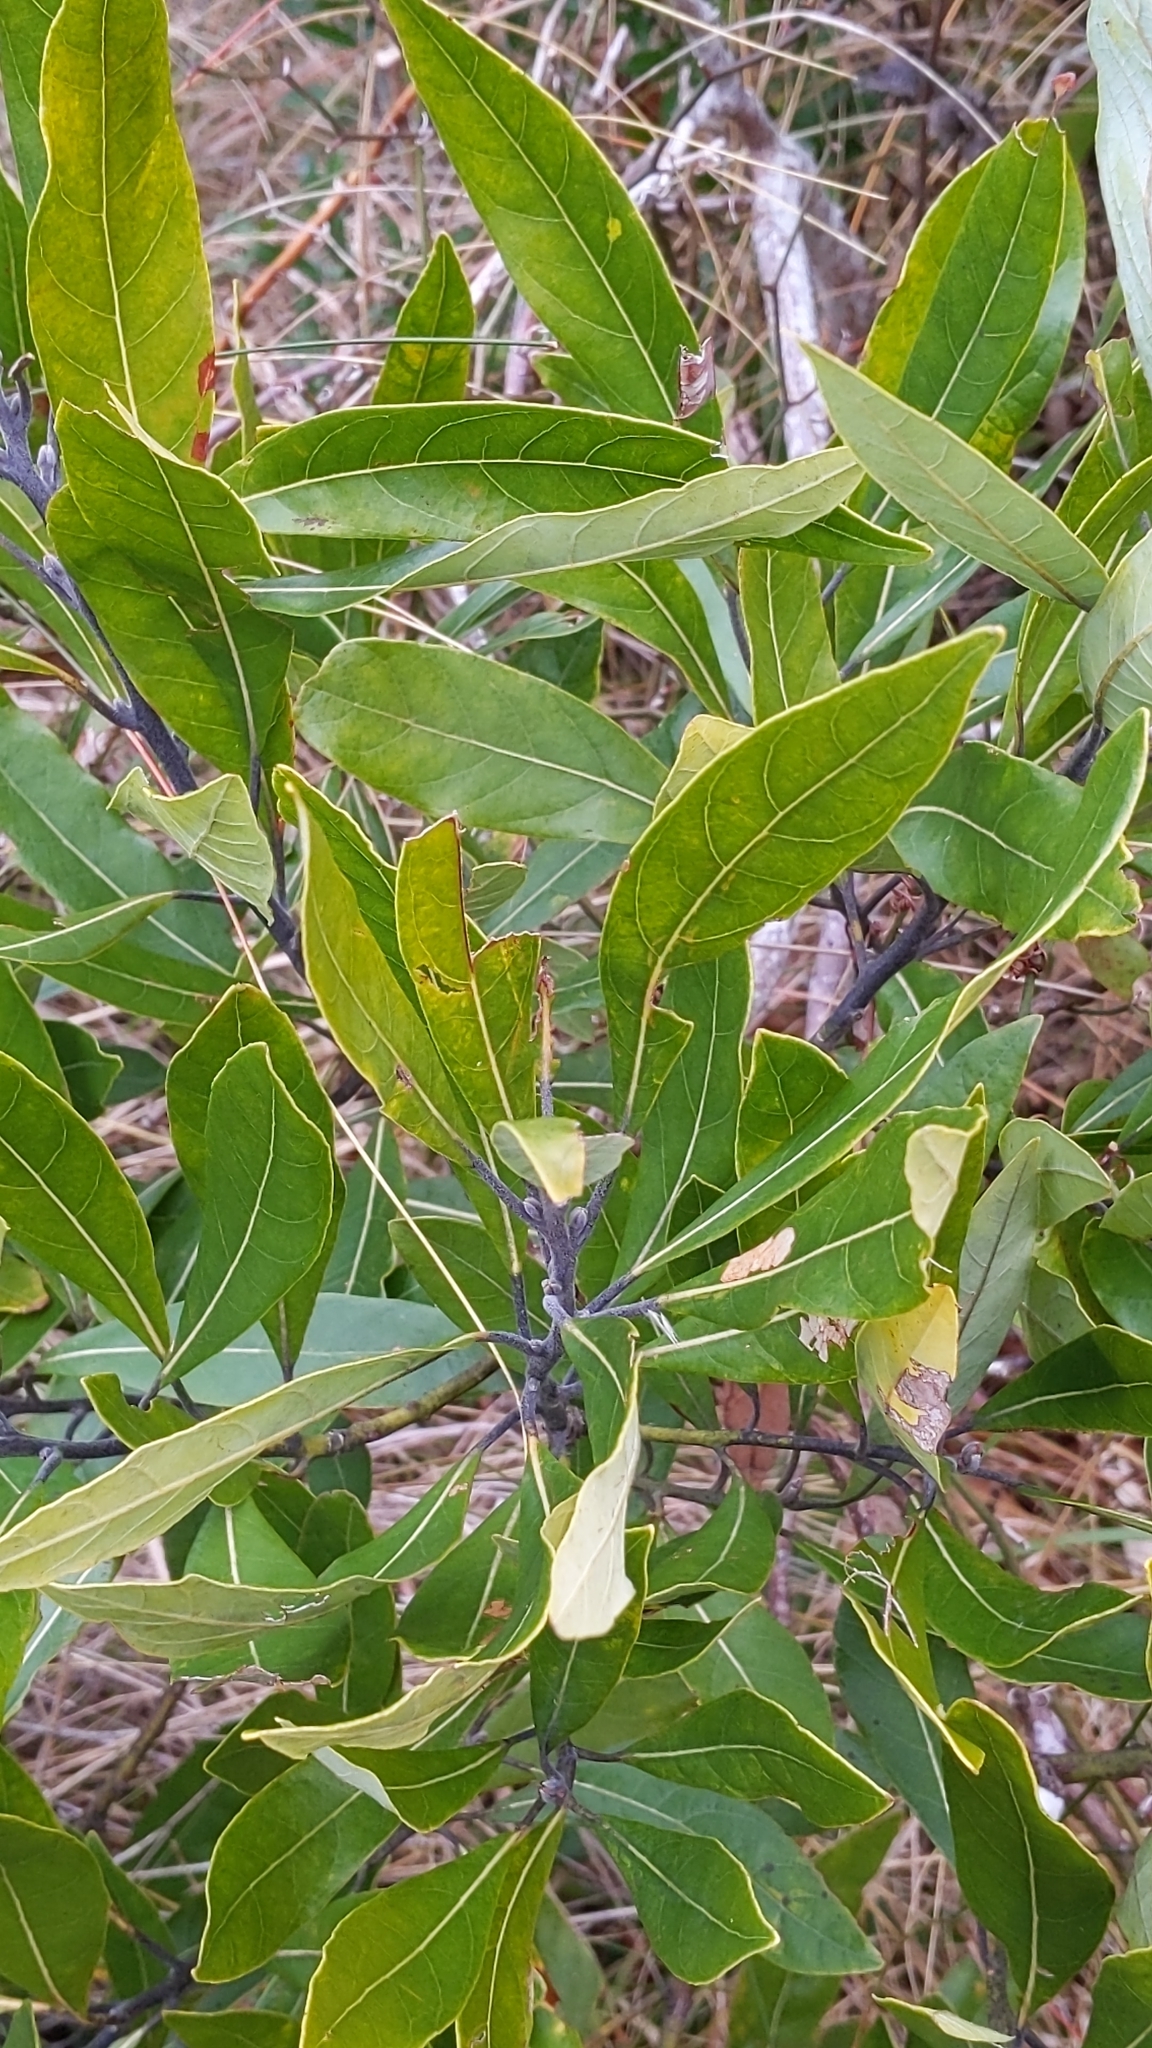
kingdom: Plantae
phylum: Tracheophyta
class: Magnoliopsida
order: Laurales
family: Lauraceae
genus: Persea
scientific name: Persea palustris
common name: Swampbay
